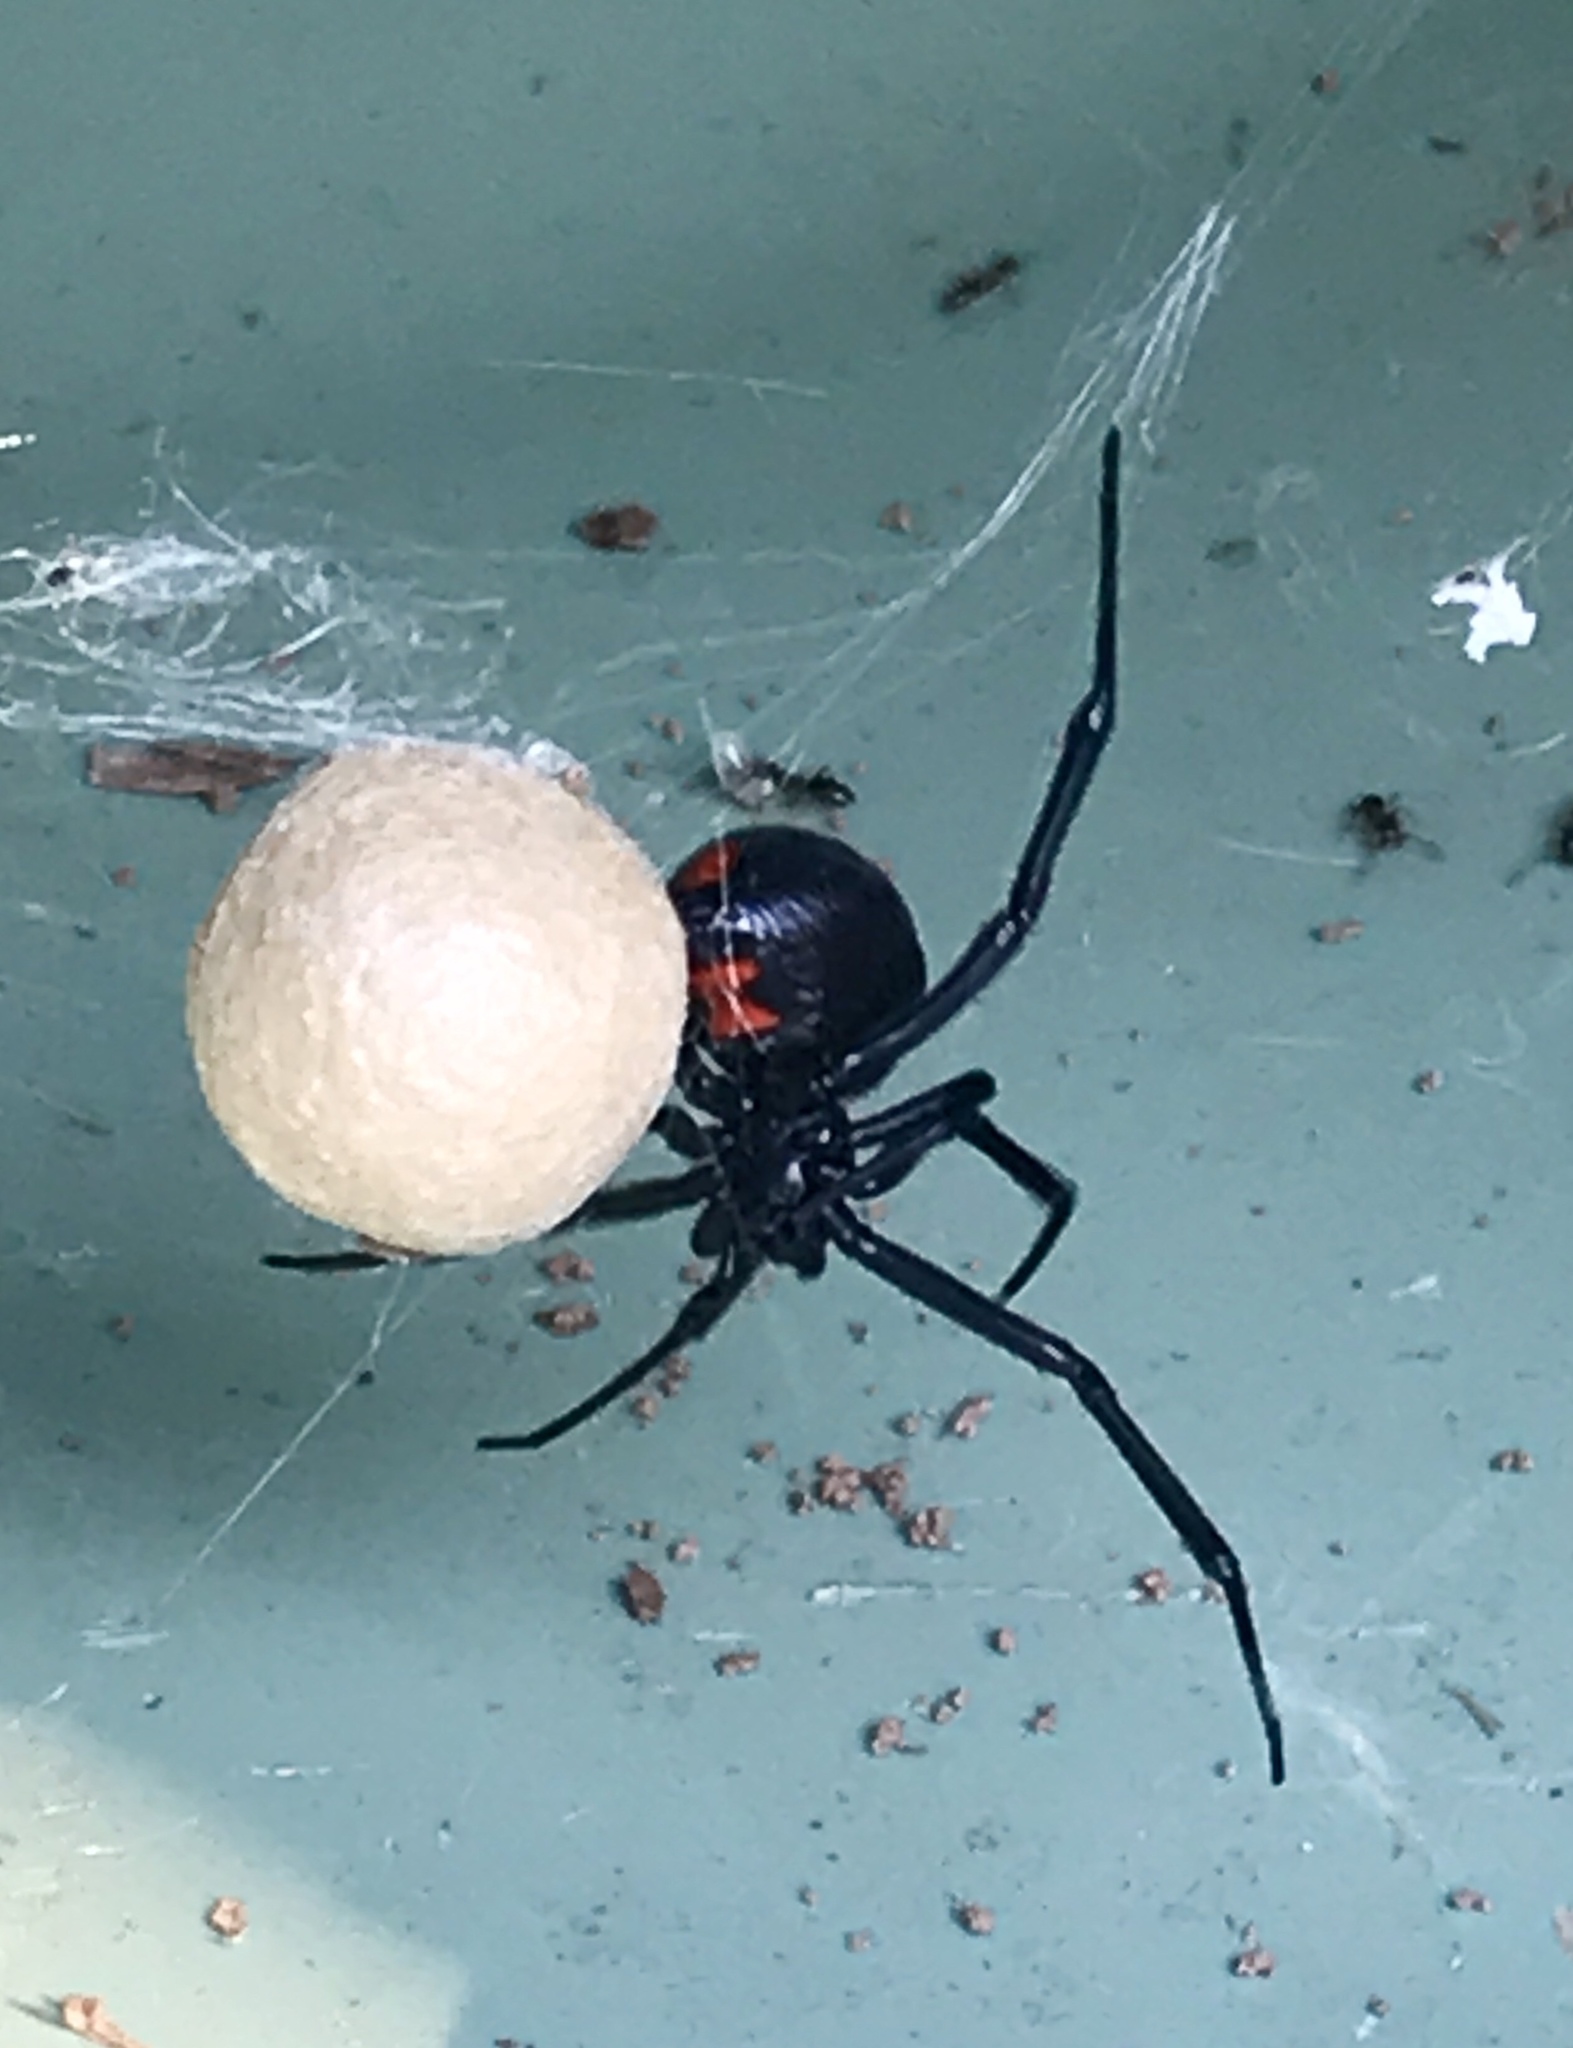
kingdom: Animalia
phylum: Arthropoda
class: Arachnida
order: Araneae
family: Theridiidae
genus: Latrodectus
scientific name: Latrodectus mactans
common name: Cobweb spiders
